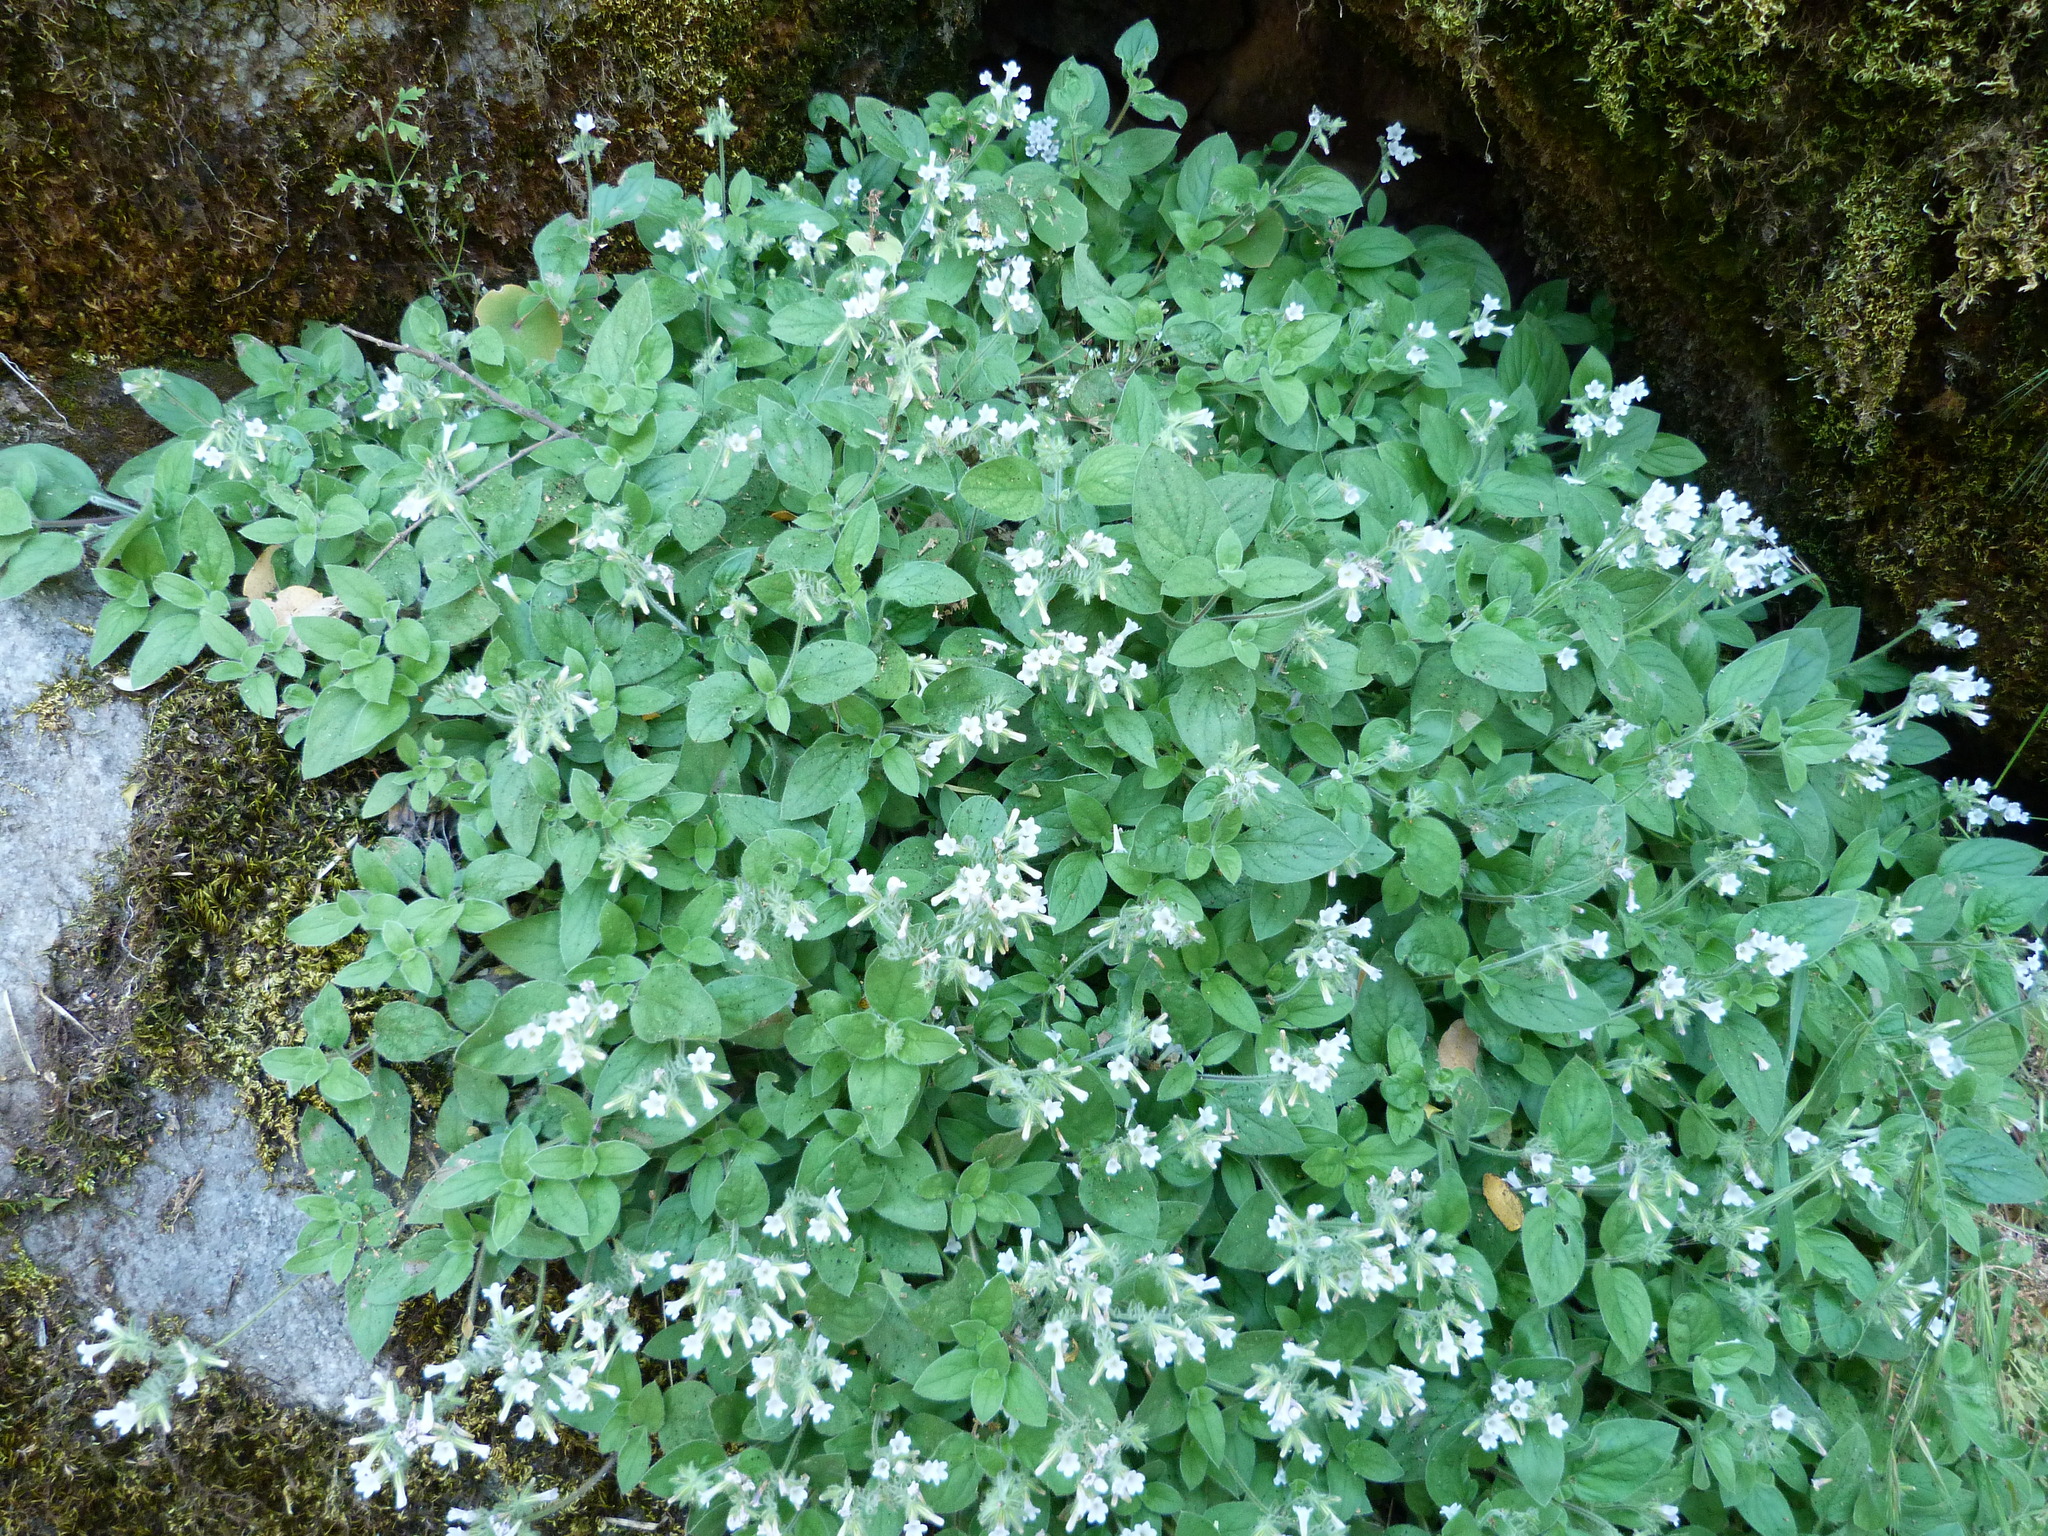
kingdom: Plantae
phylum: Tracheophyta
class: Magnoliopsida
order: Boraginales
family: Hydrophyllaceae
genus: Draperia
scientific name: Draperia systyla
